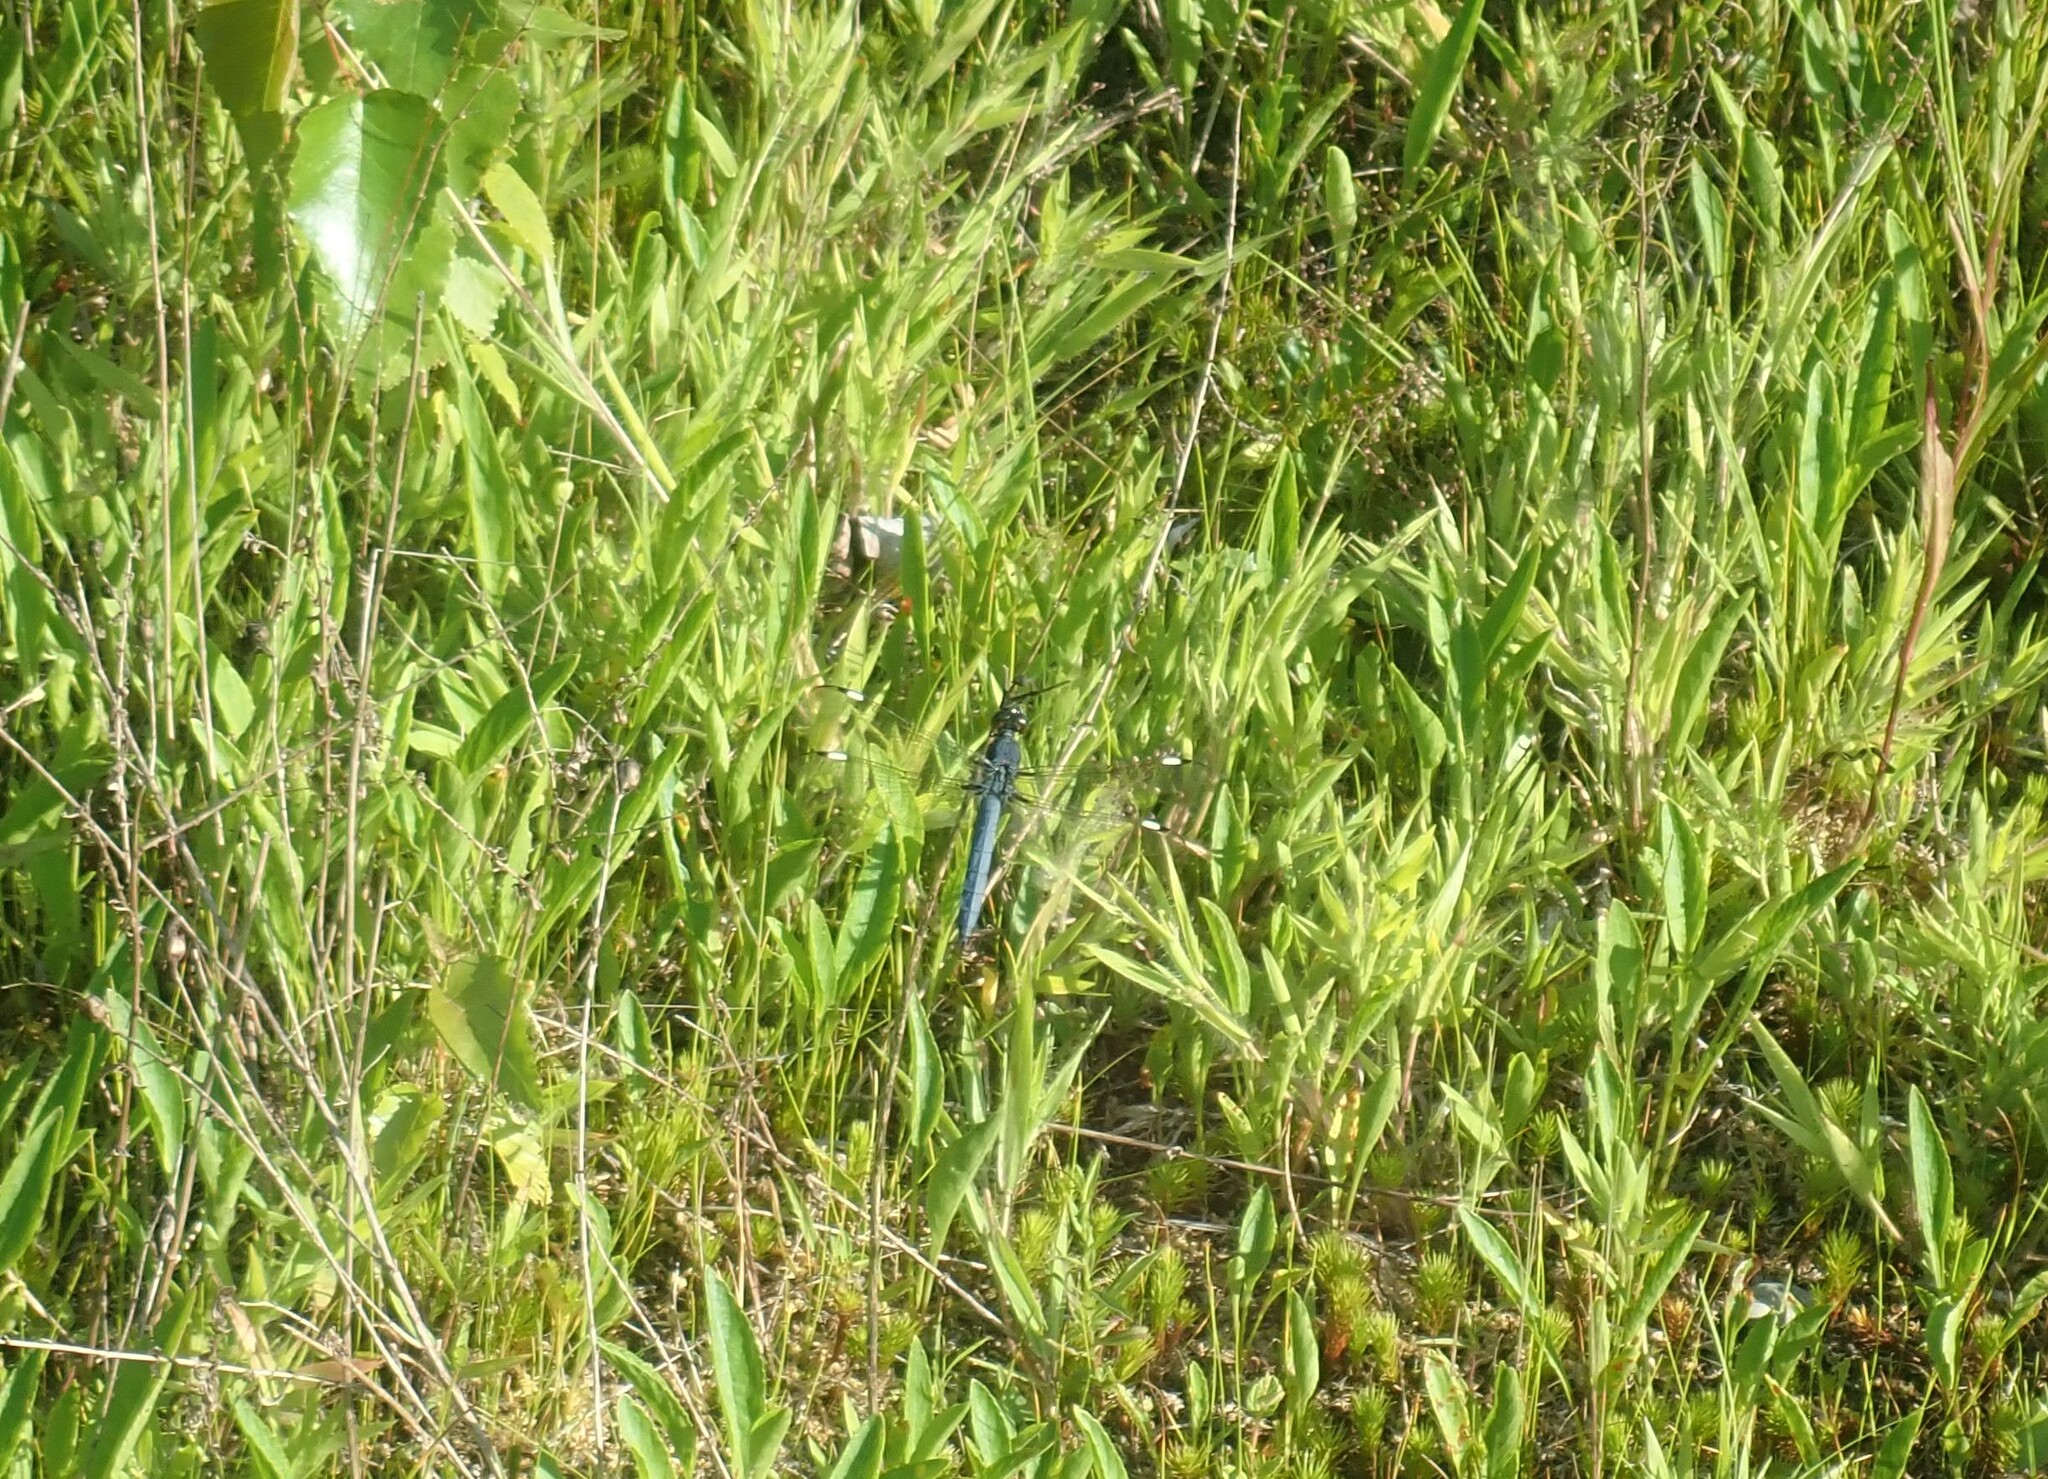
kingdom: Animalia
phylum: Arthropoda
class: Insecta
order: Odonata
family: Libellulidae
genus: Libellula
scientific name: Libellula cyanea
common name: Spangled skimmer
